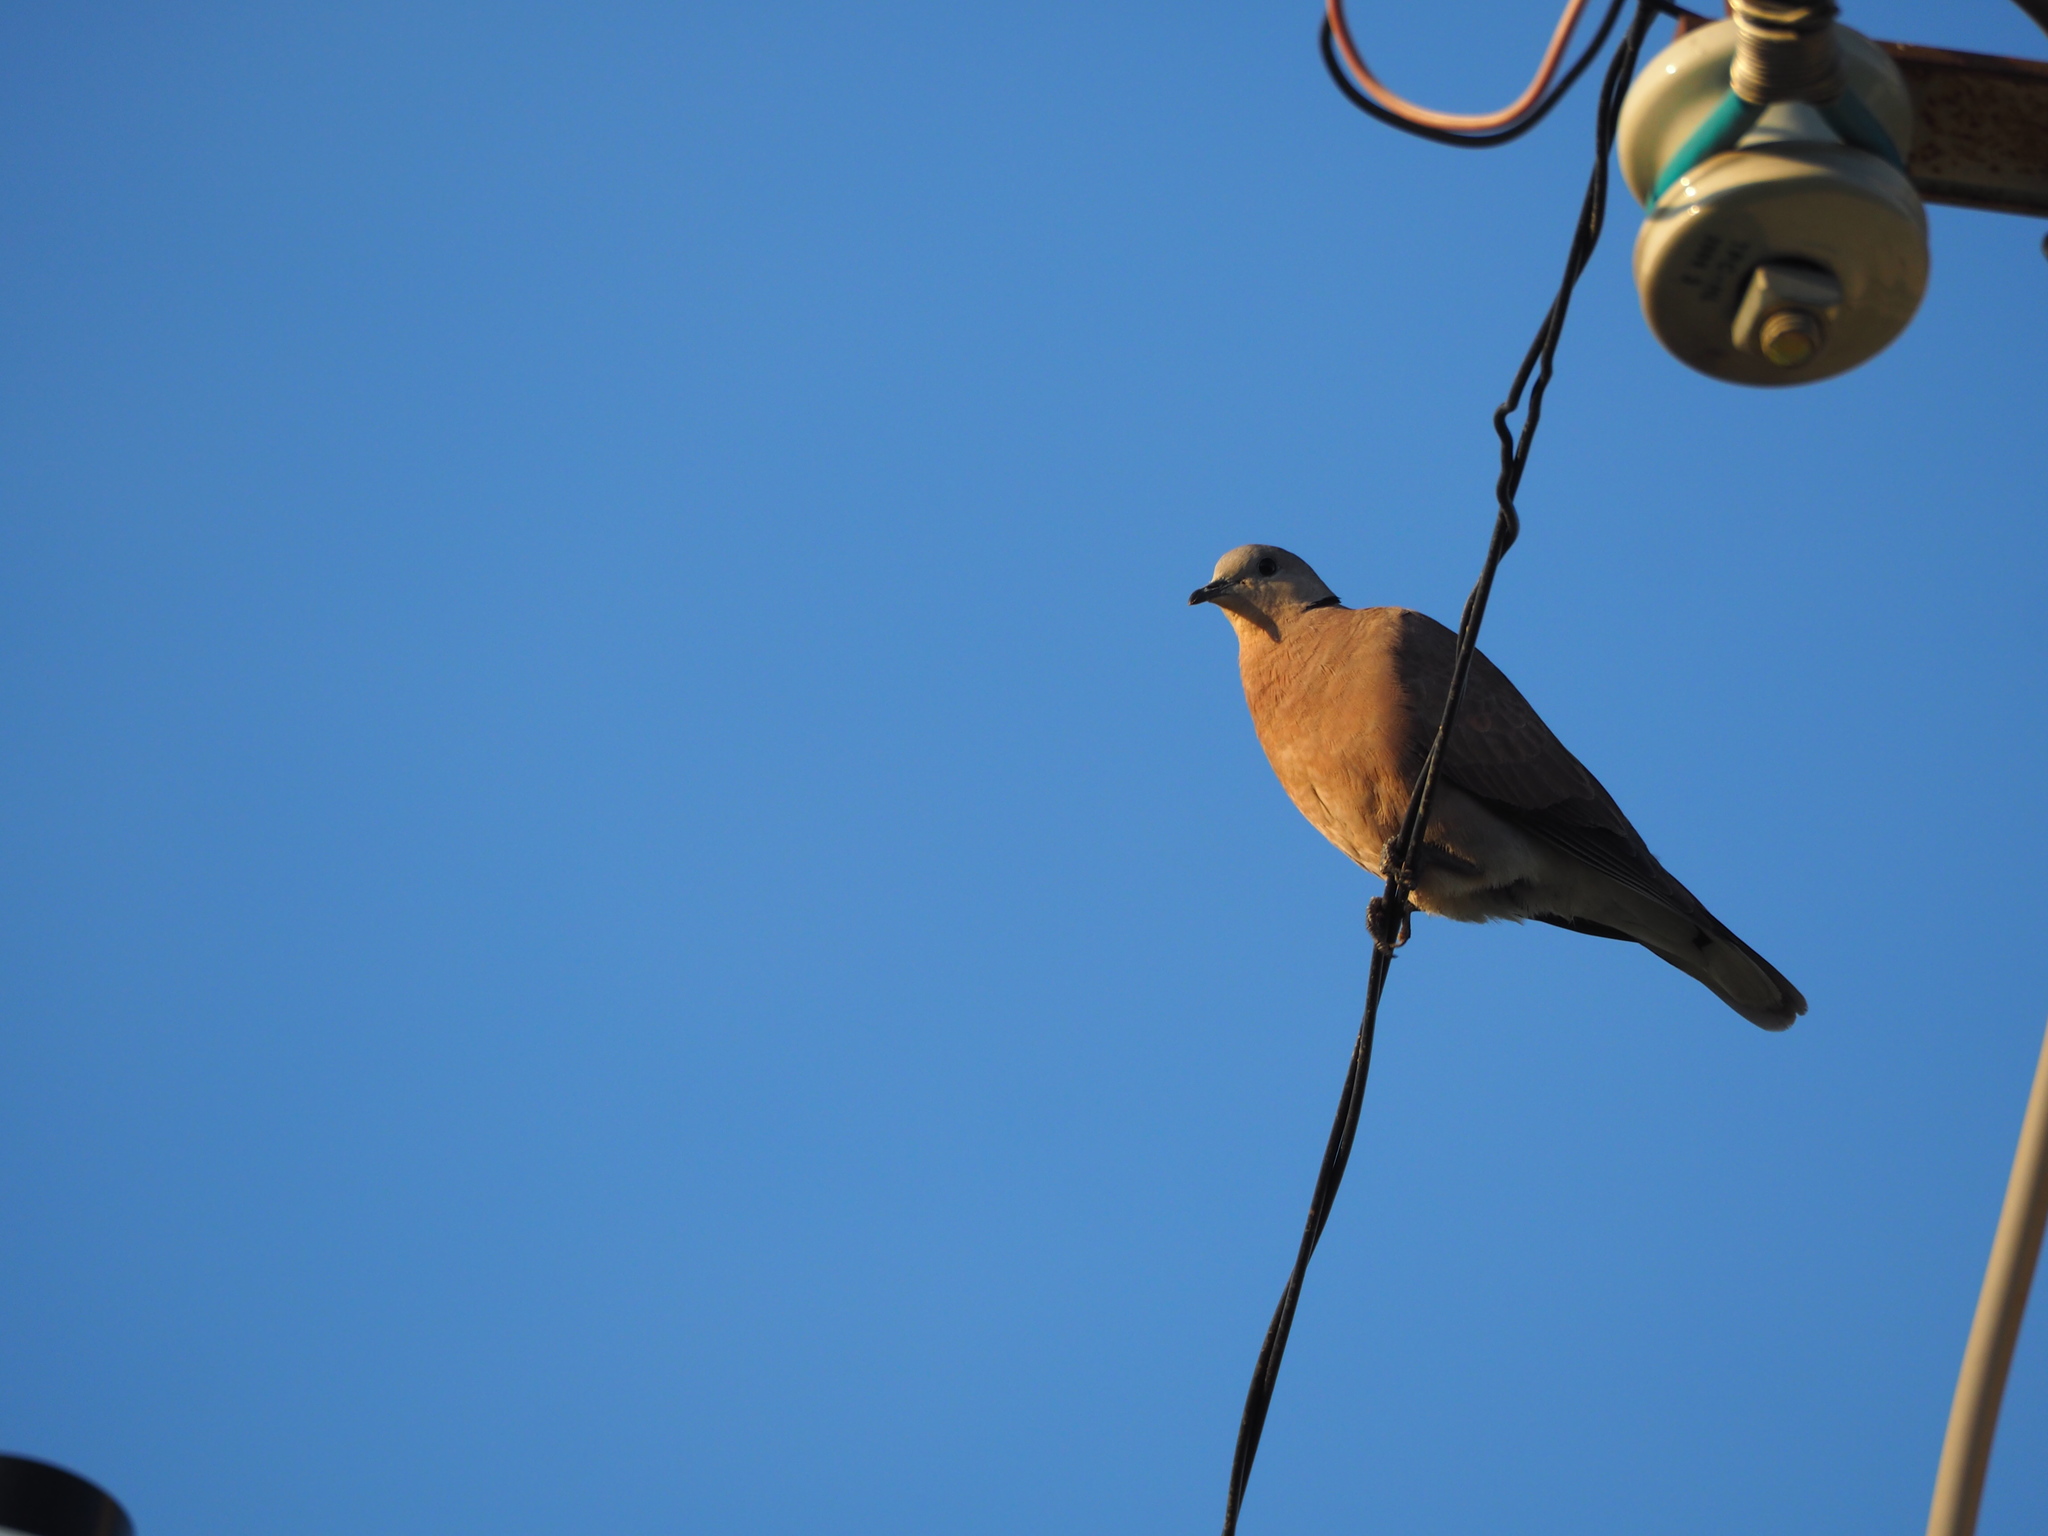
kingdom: Animalia
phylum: Chordata
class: Aves
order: Columbiformes
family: Columbidae
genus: Streptopelia
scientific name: Streptopelia tranquebarica
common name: Red turtle dove
